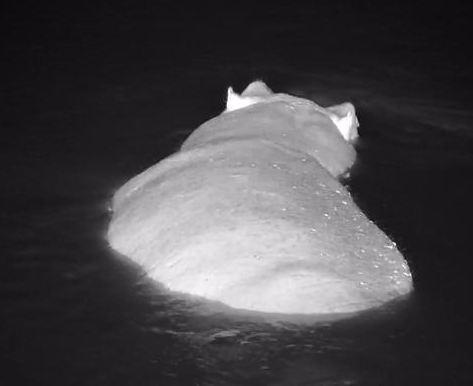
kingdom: Animalia
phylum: Chordata
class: Mammalia
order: Artiodactyla
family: Hippopotamidae
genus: Hippopotamus
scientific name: Hippopotamus amphibius
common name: Common hippopotamus
